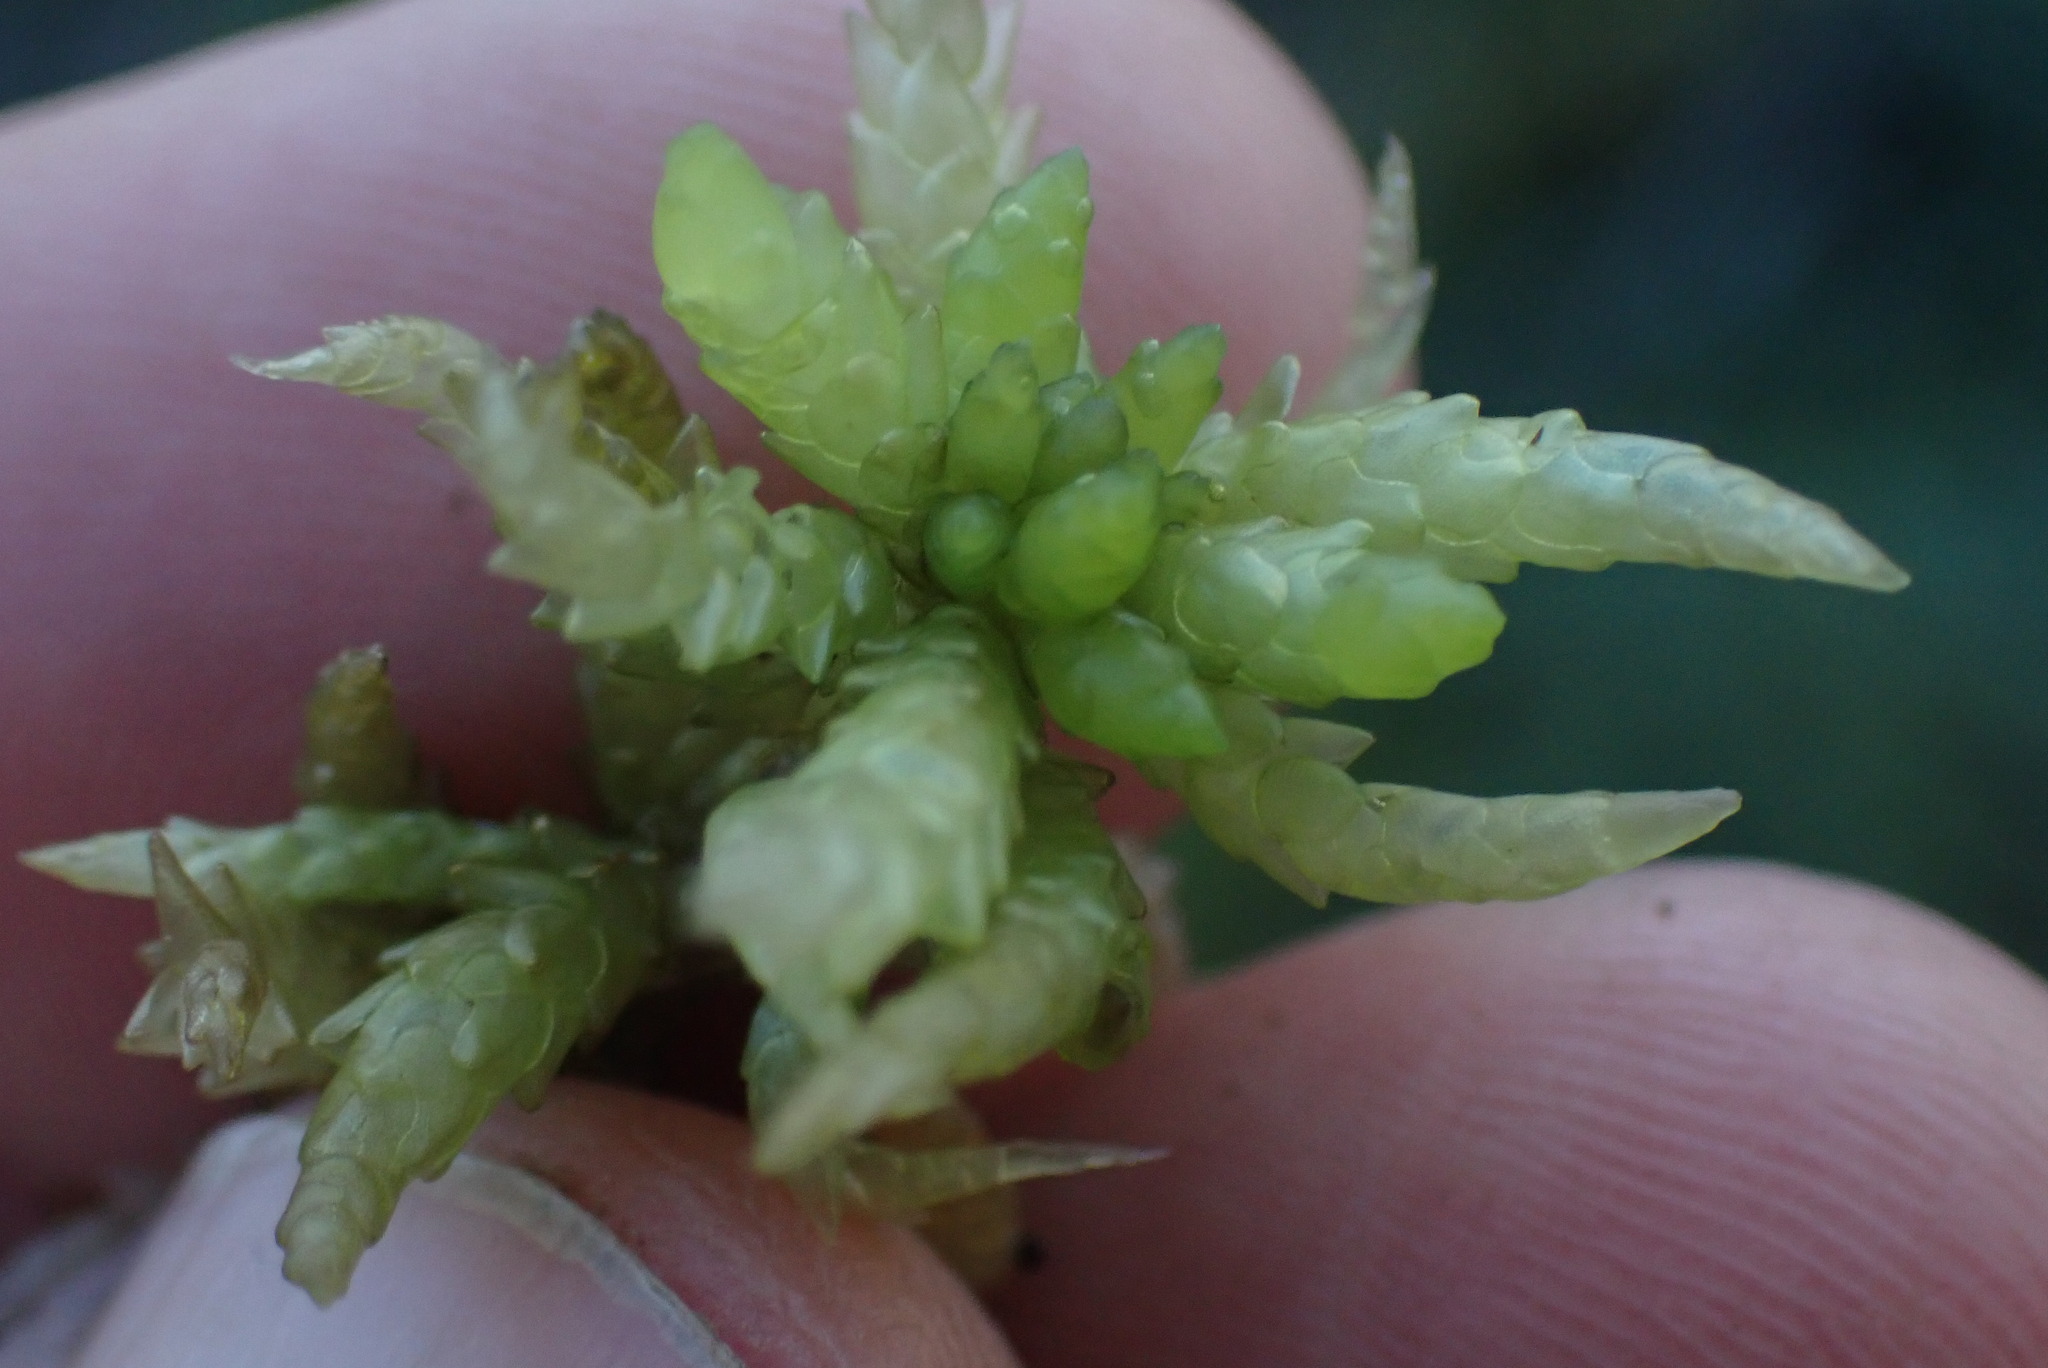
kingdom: Plantae
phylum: Bryophyta
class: Sphagnopsida
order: Sphagnales
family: Sphagnaceae
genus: Sphagnum
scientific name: Sphagnum papillosum
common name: Papillose peat moss
